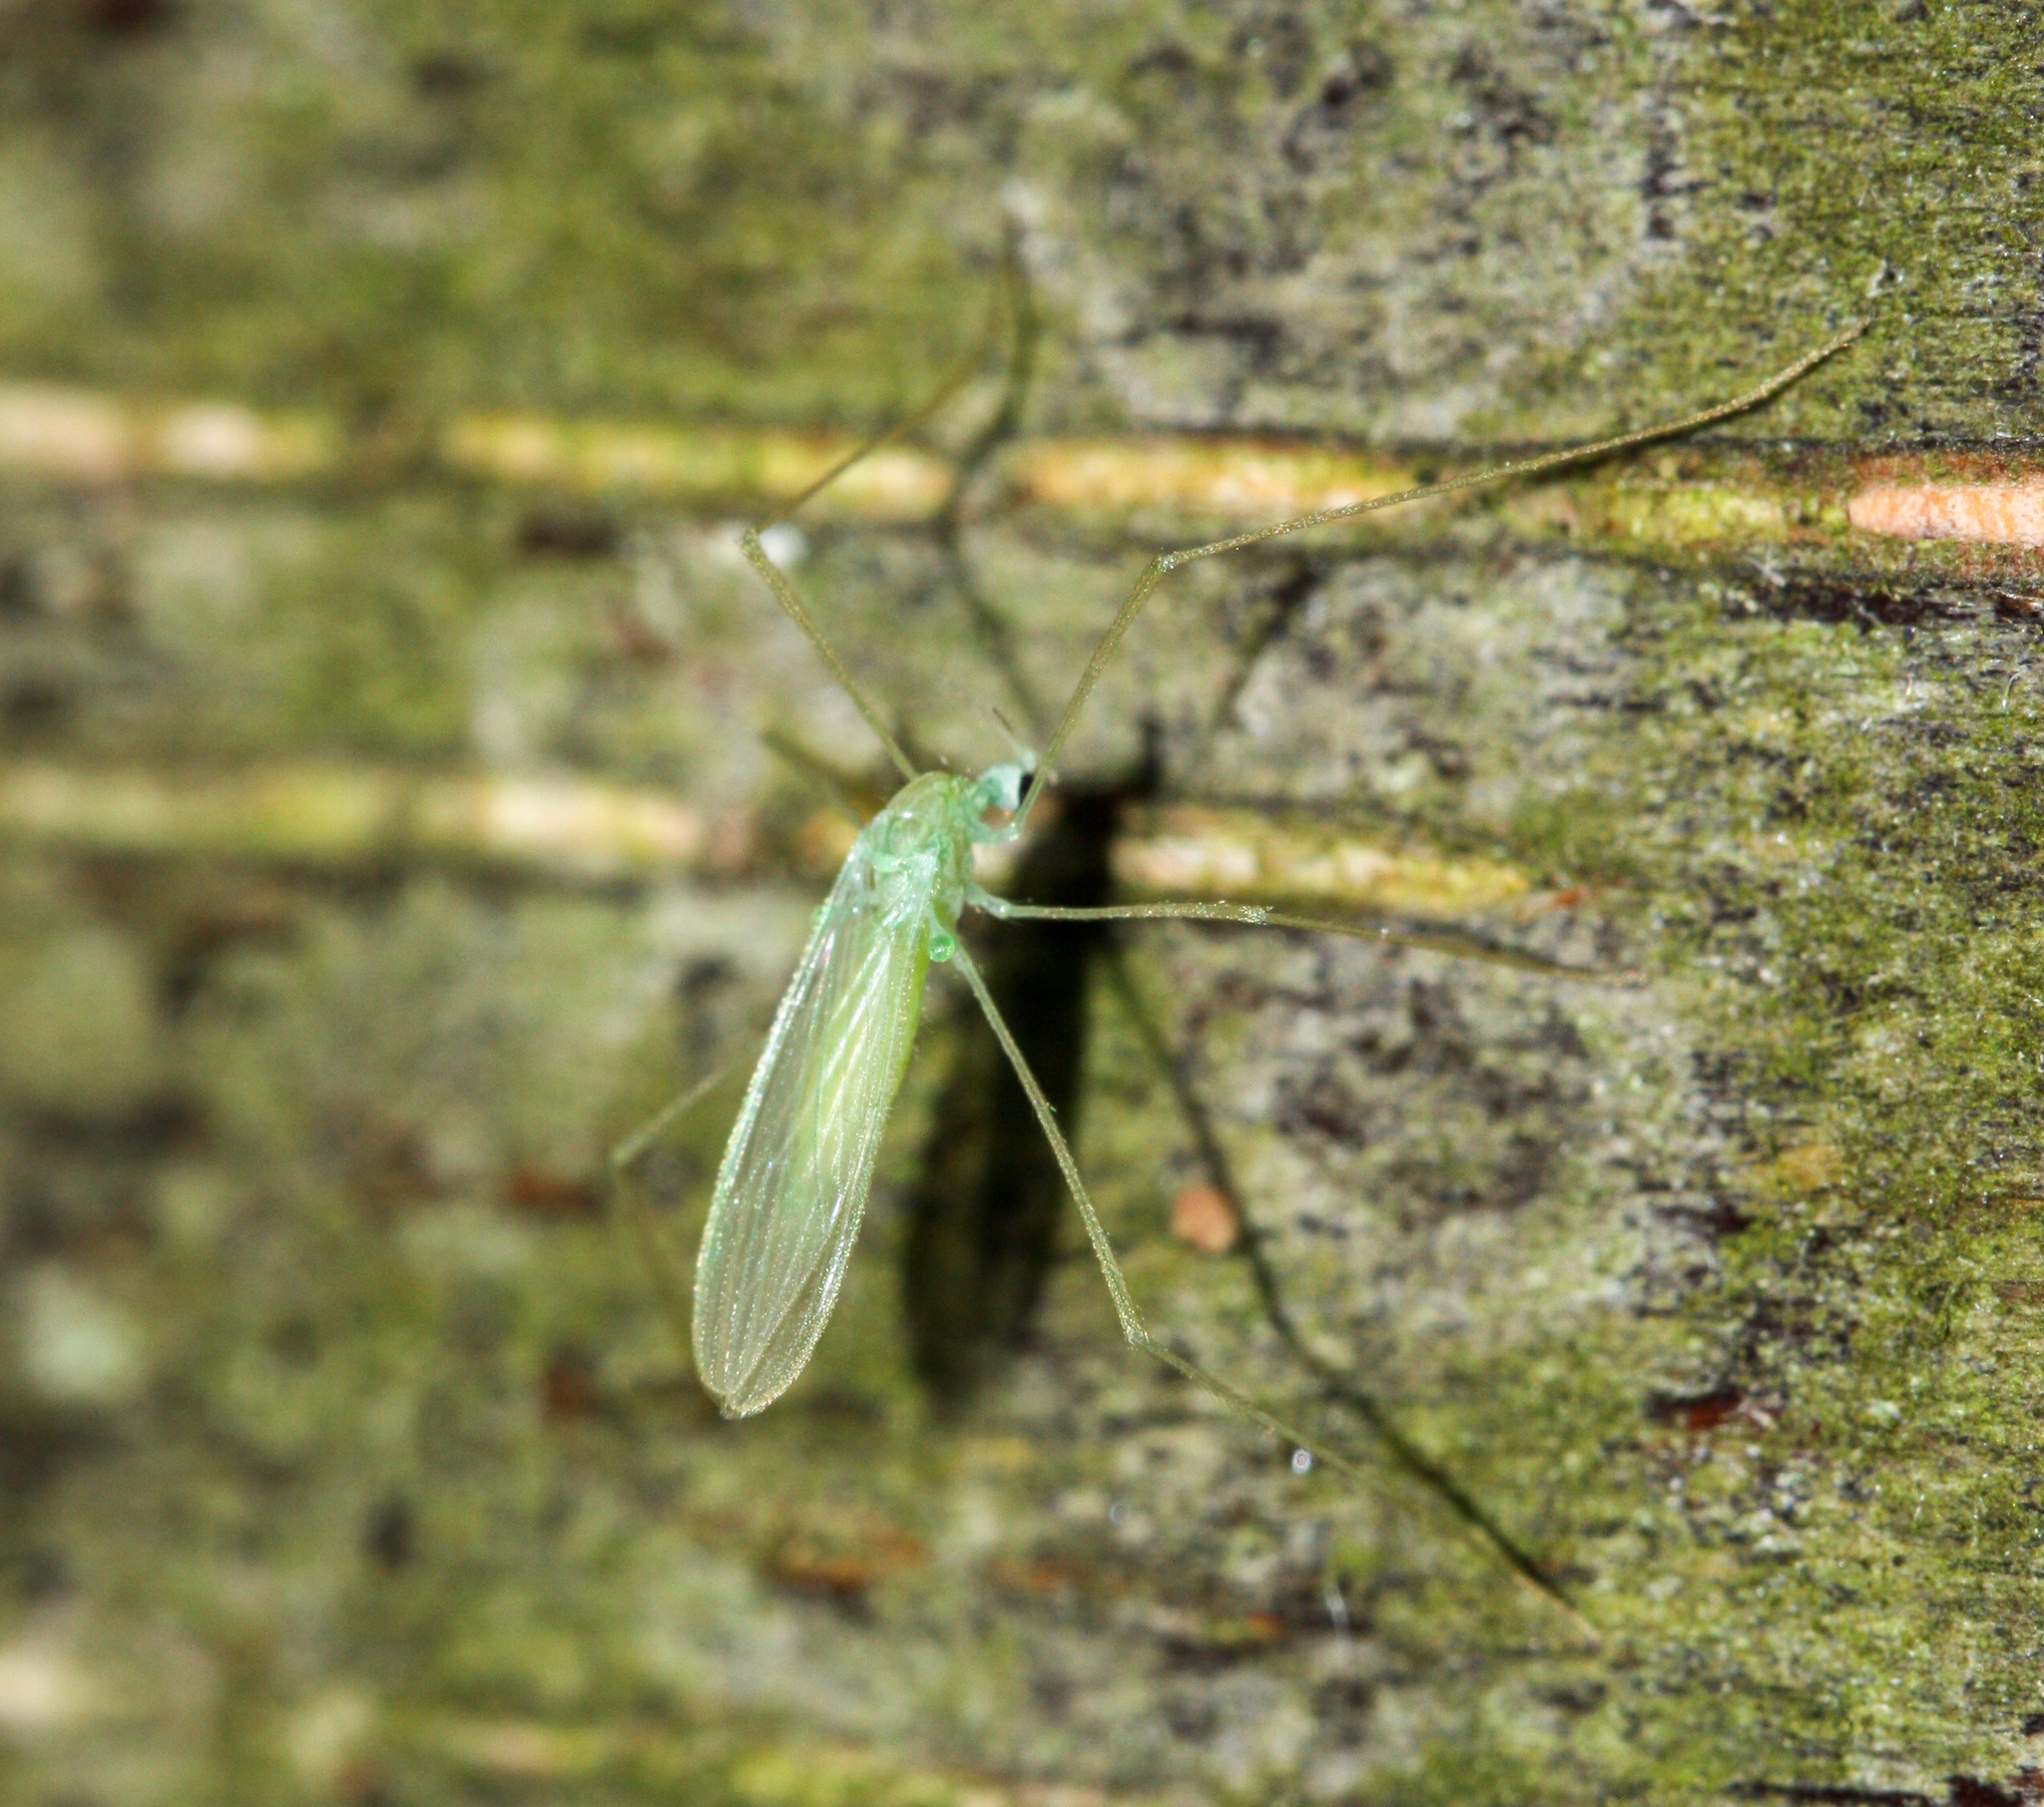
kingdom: Animalia
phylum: Arthropoda
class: Insecta
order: Diptera
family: Limoniidae
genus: Erioptera
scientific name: Erioptera
